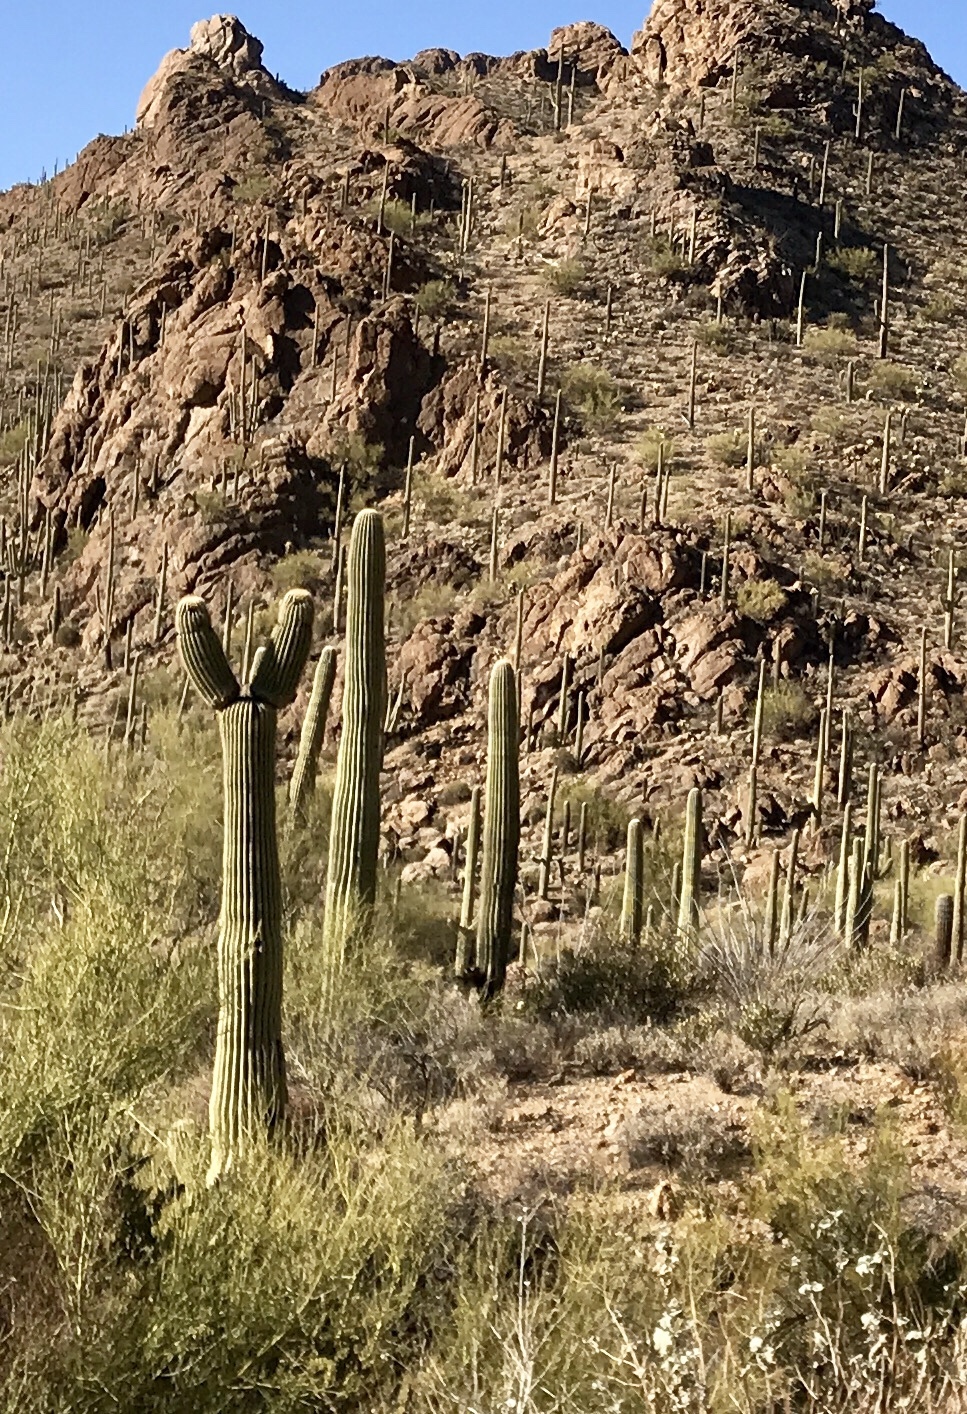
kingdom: Plantae
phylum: Tracheophyta
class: Magnoliopsida
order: Caryophyllales
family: Cactaceae
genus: Carnegiea
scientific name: Carnegiea gigantea
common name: Saguaro
